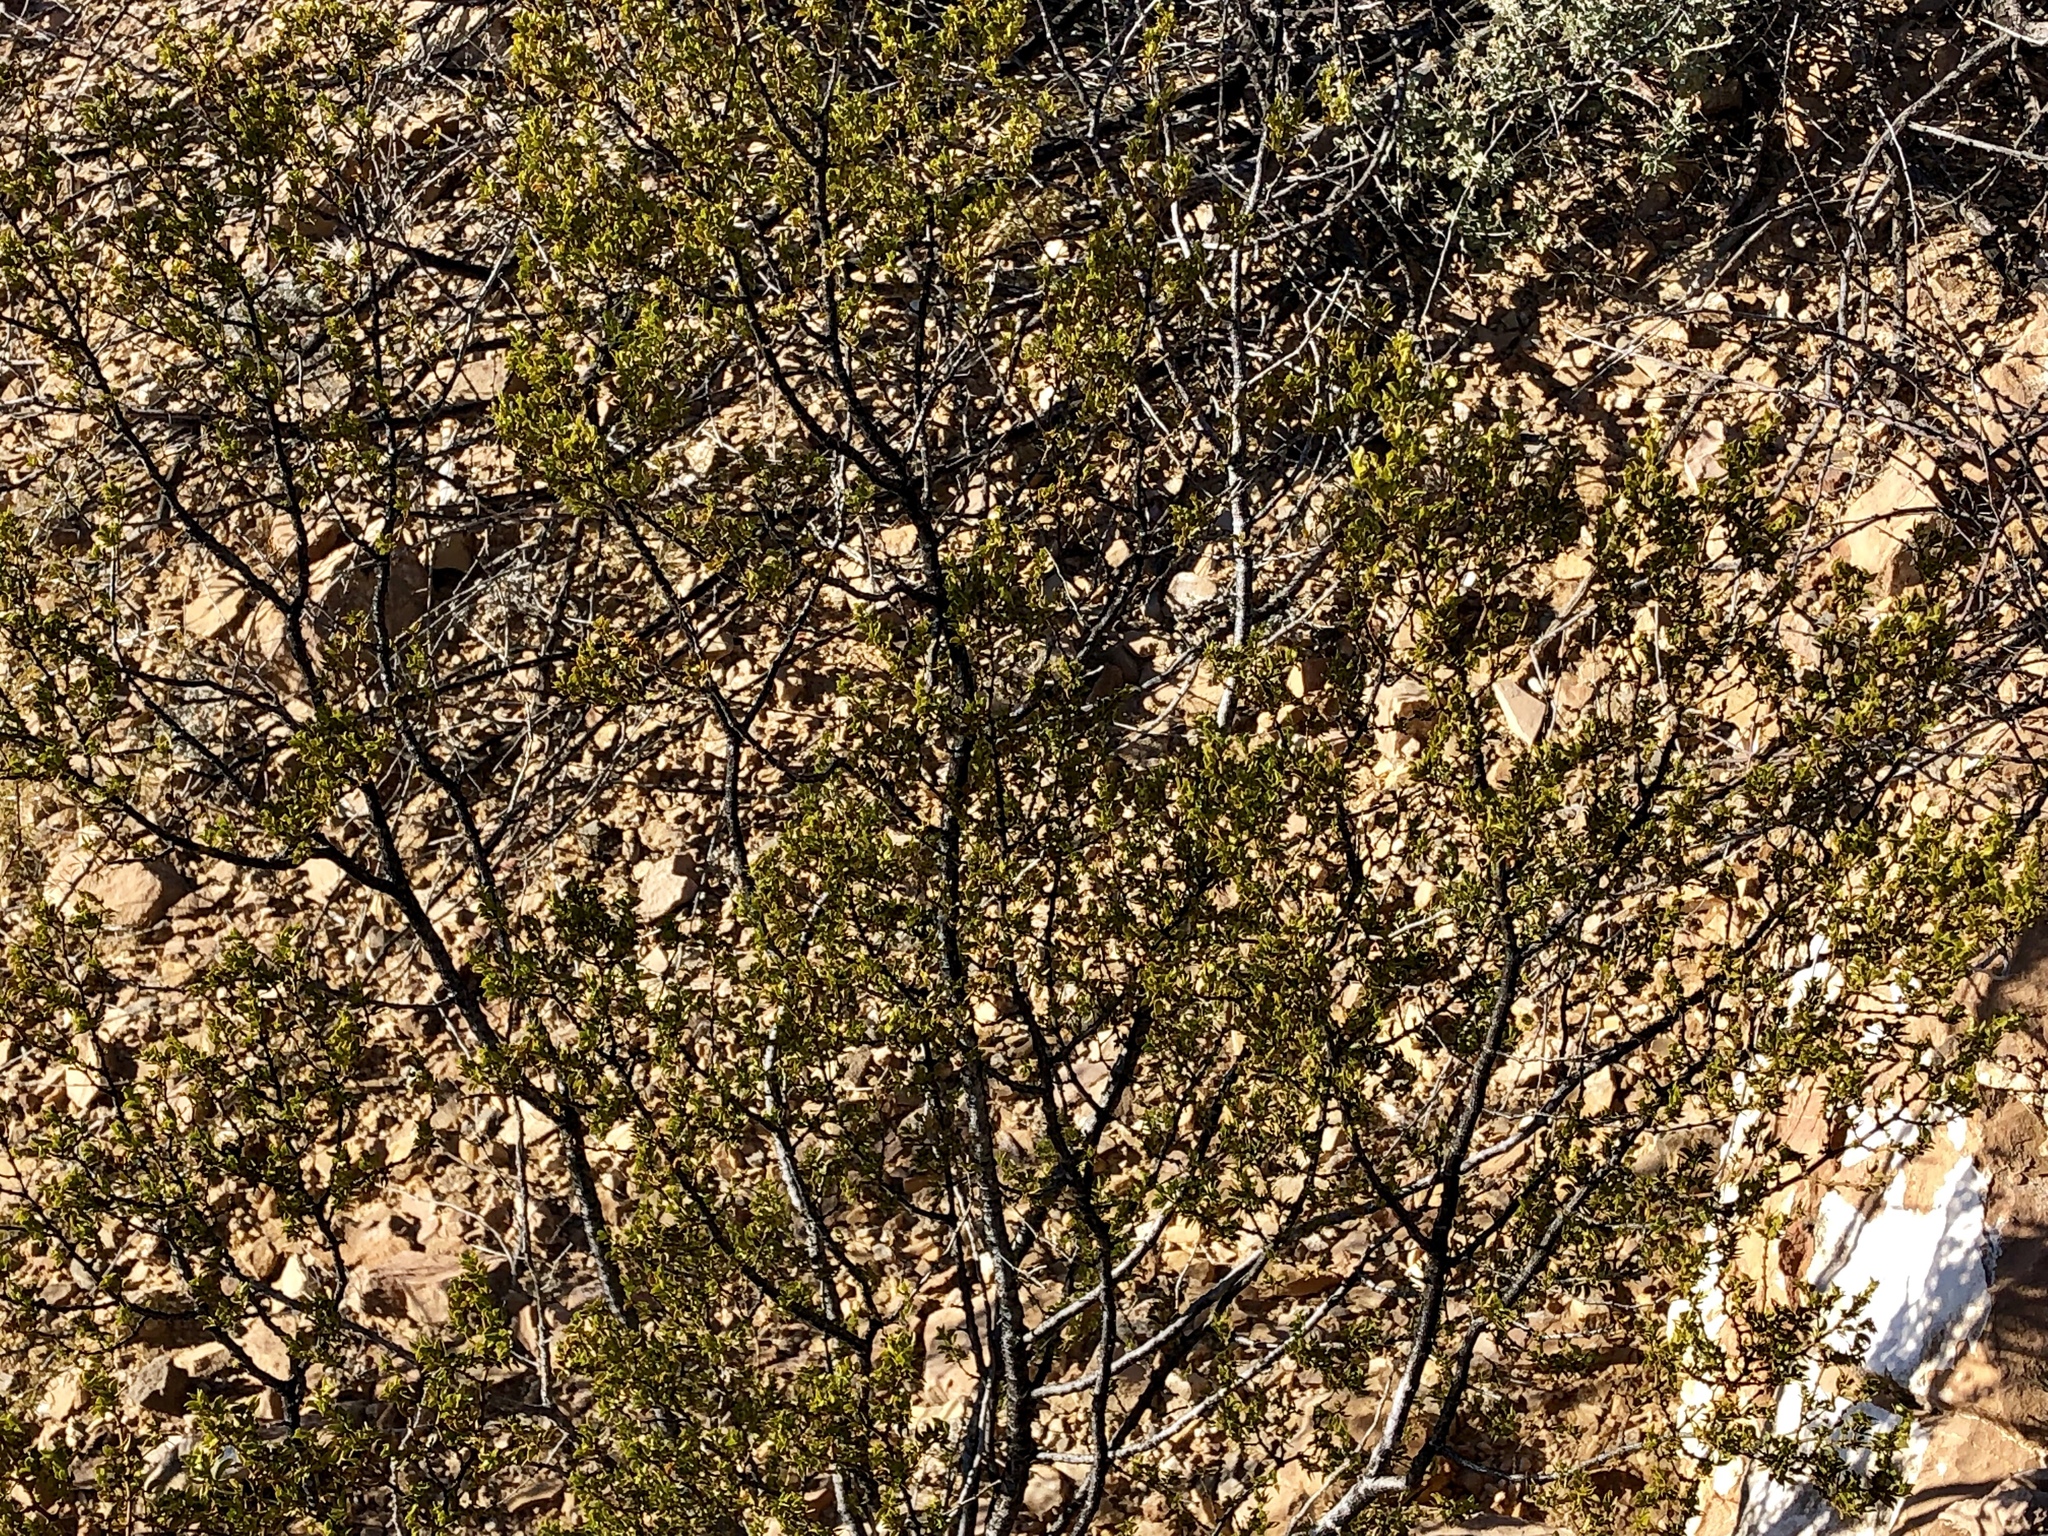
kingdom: Plantae
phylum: Tracheophyta
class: Magnoliopsida
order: Zygophyllales
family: Zygophyllaceae
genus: Larrea
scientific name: Larrea tridentata
